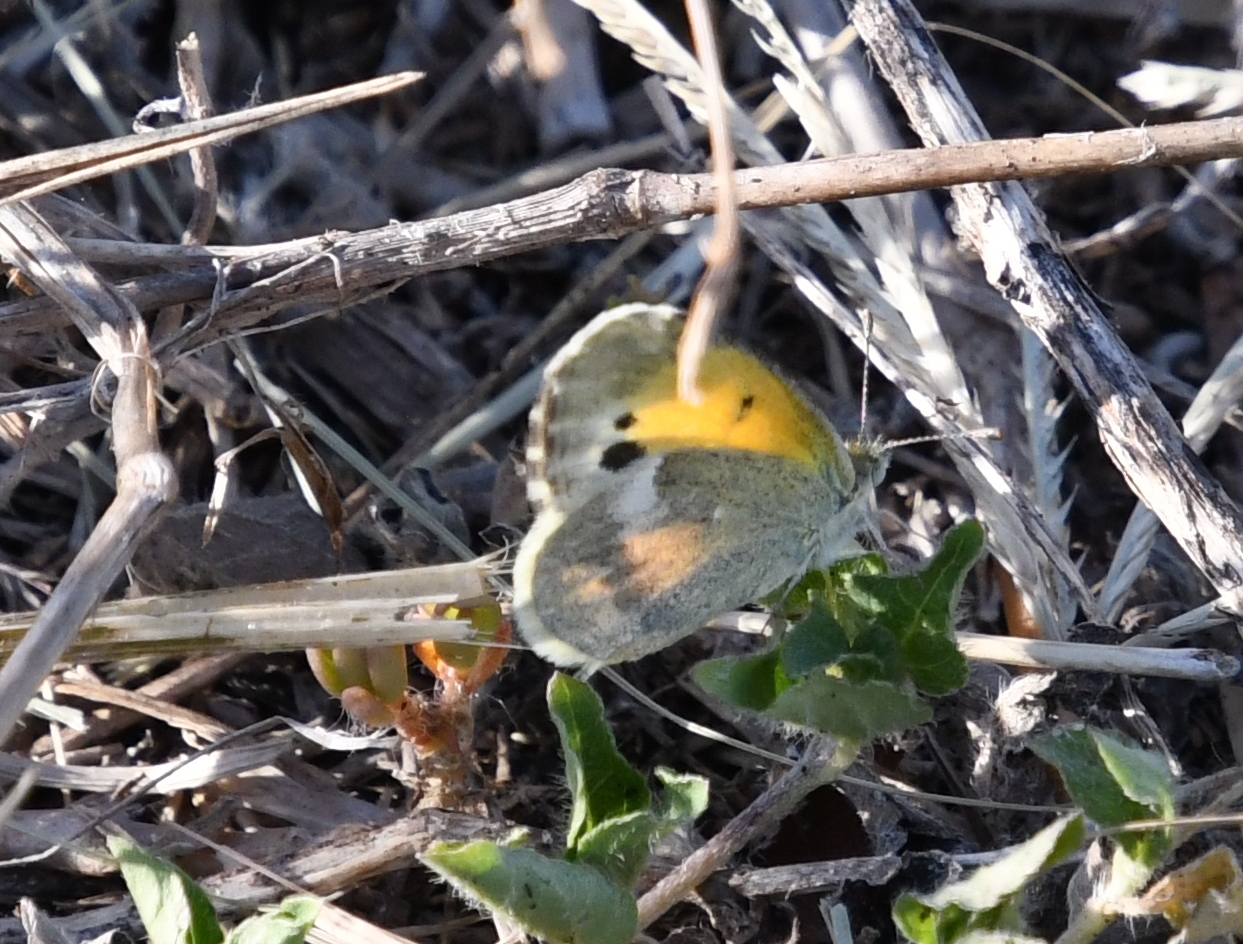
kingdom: Animalia
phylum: Arthropoda
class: Insecta
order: Lepidoptera
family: Pieridae
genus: Nathalis
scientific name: Nathalis iole
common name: Dainty sulphur
